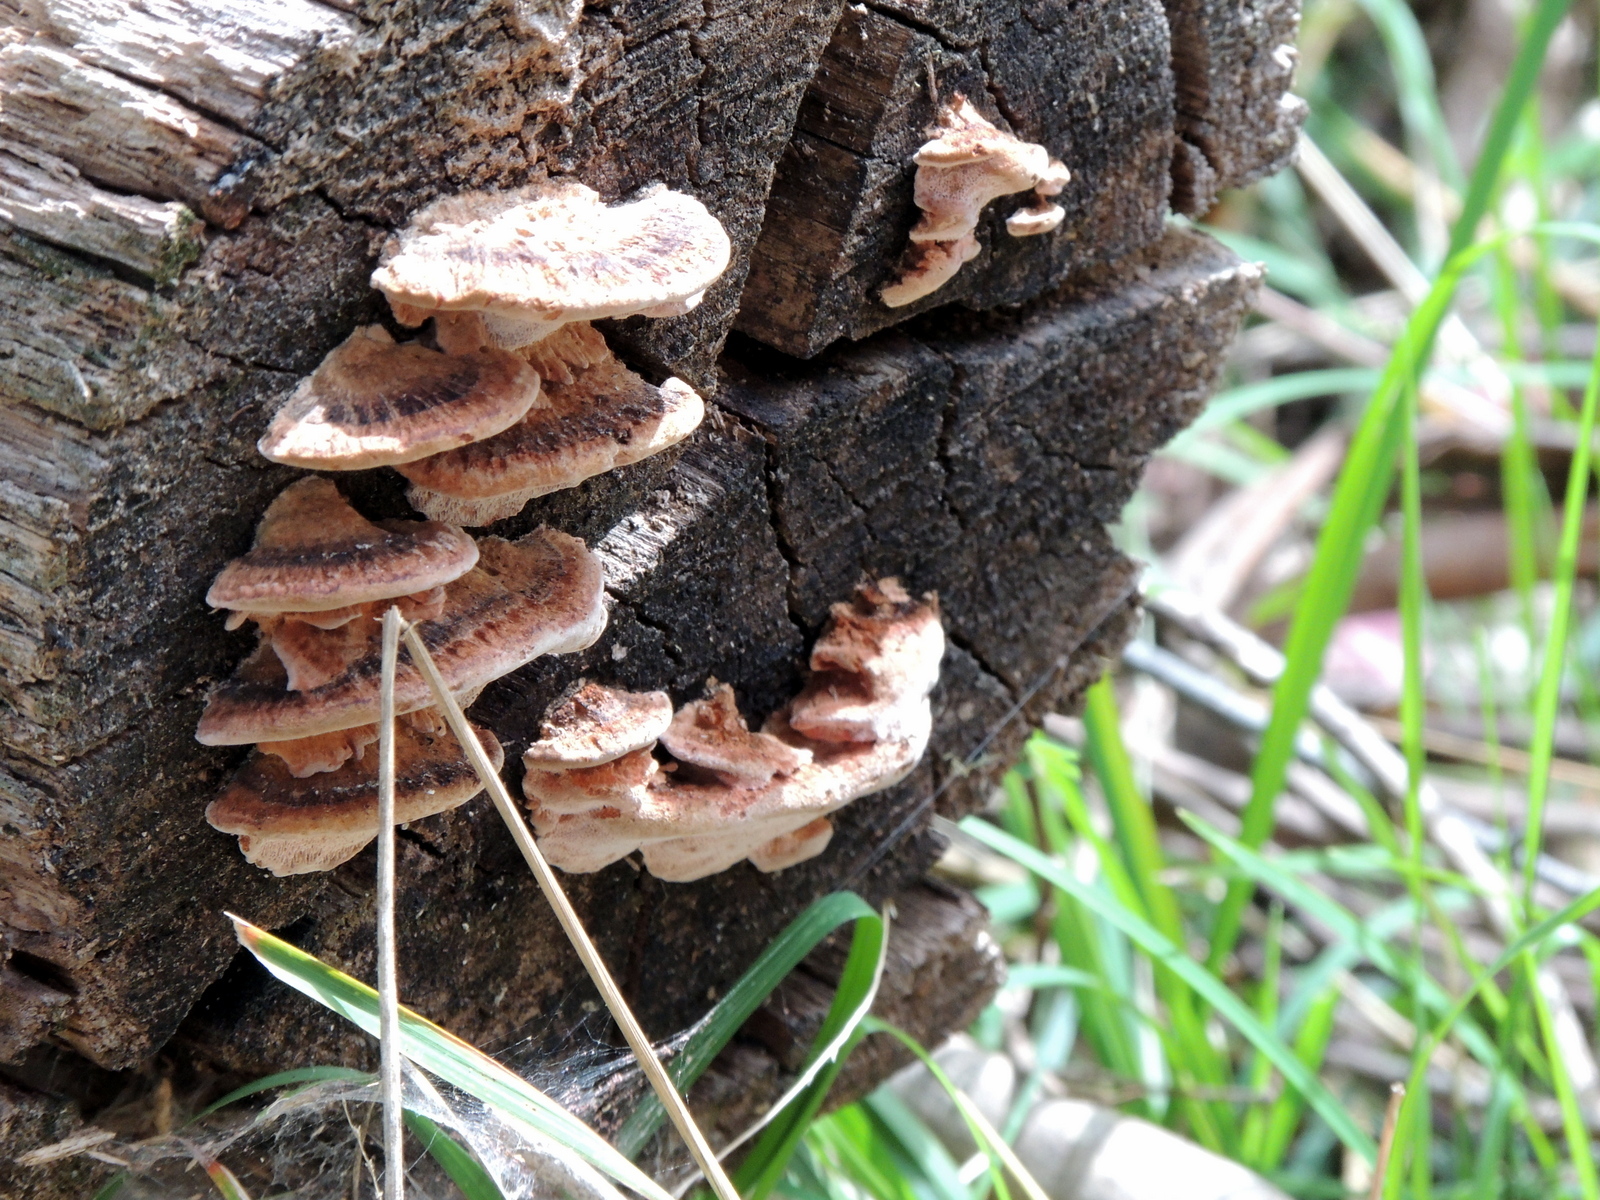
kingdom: Fungi
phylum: Basidiomycota
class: Agaricomycetes
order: Polyporales
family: Fomitopsidaceae
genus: Rhodofomitopsis
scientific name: Rhodofomitopsis lilacinogilva
